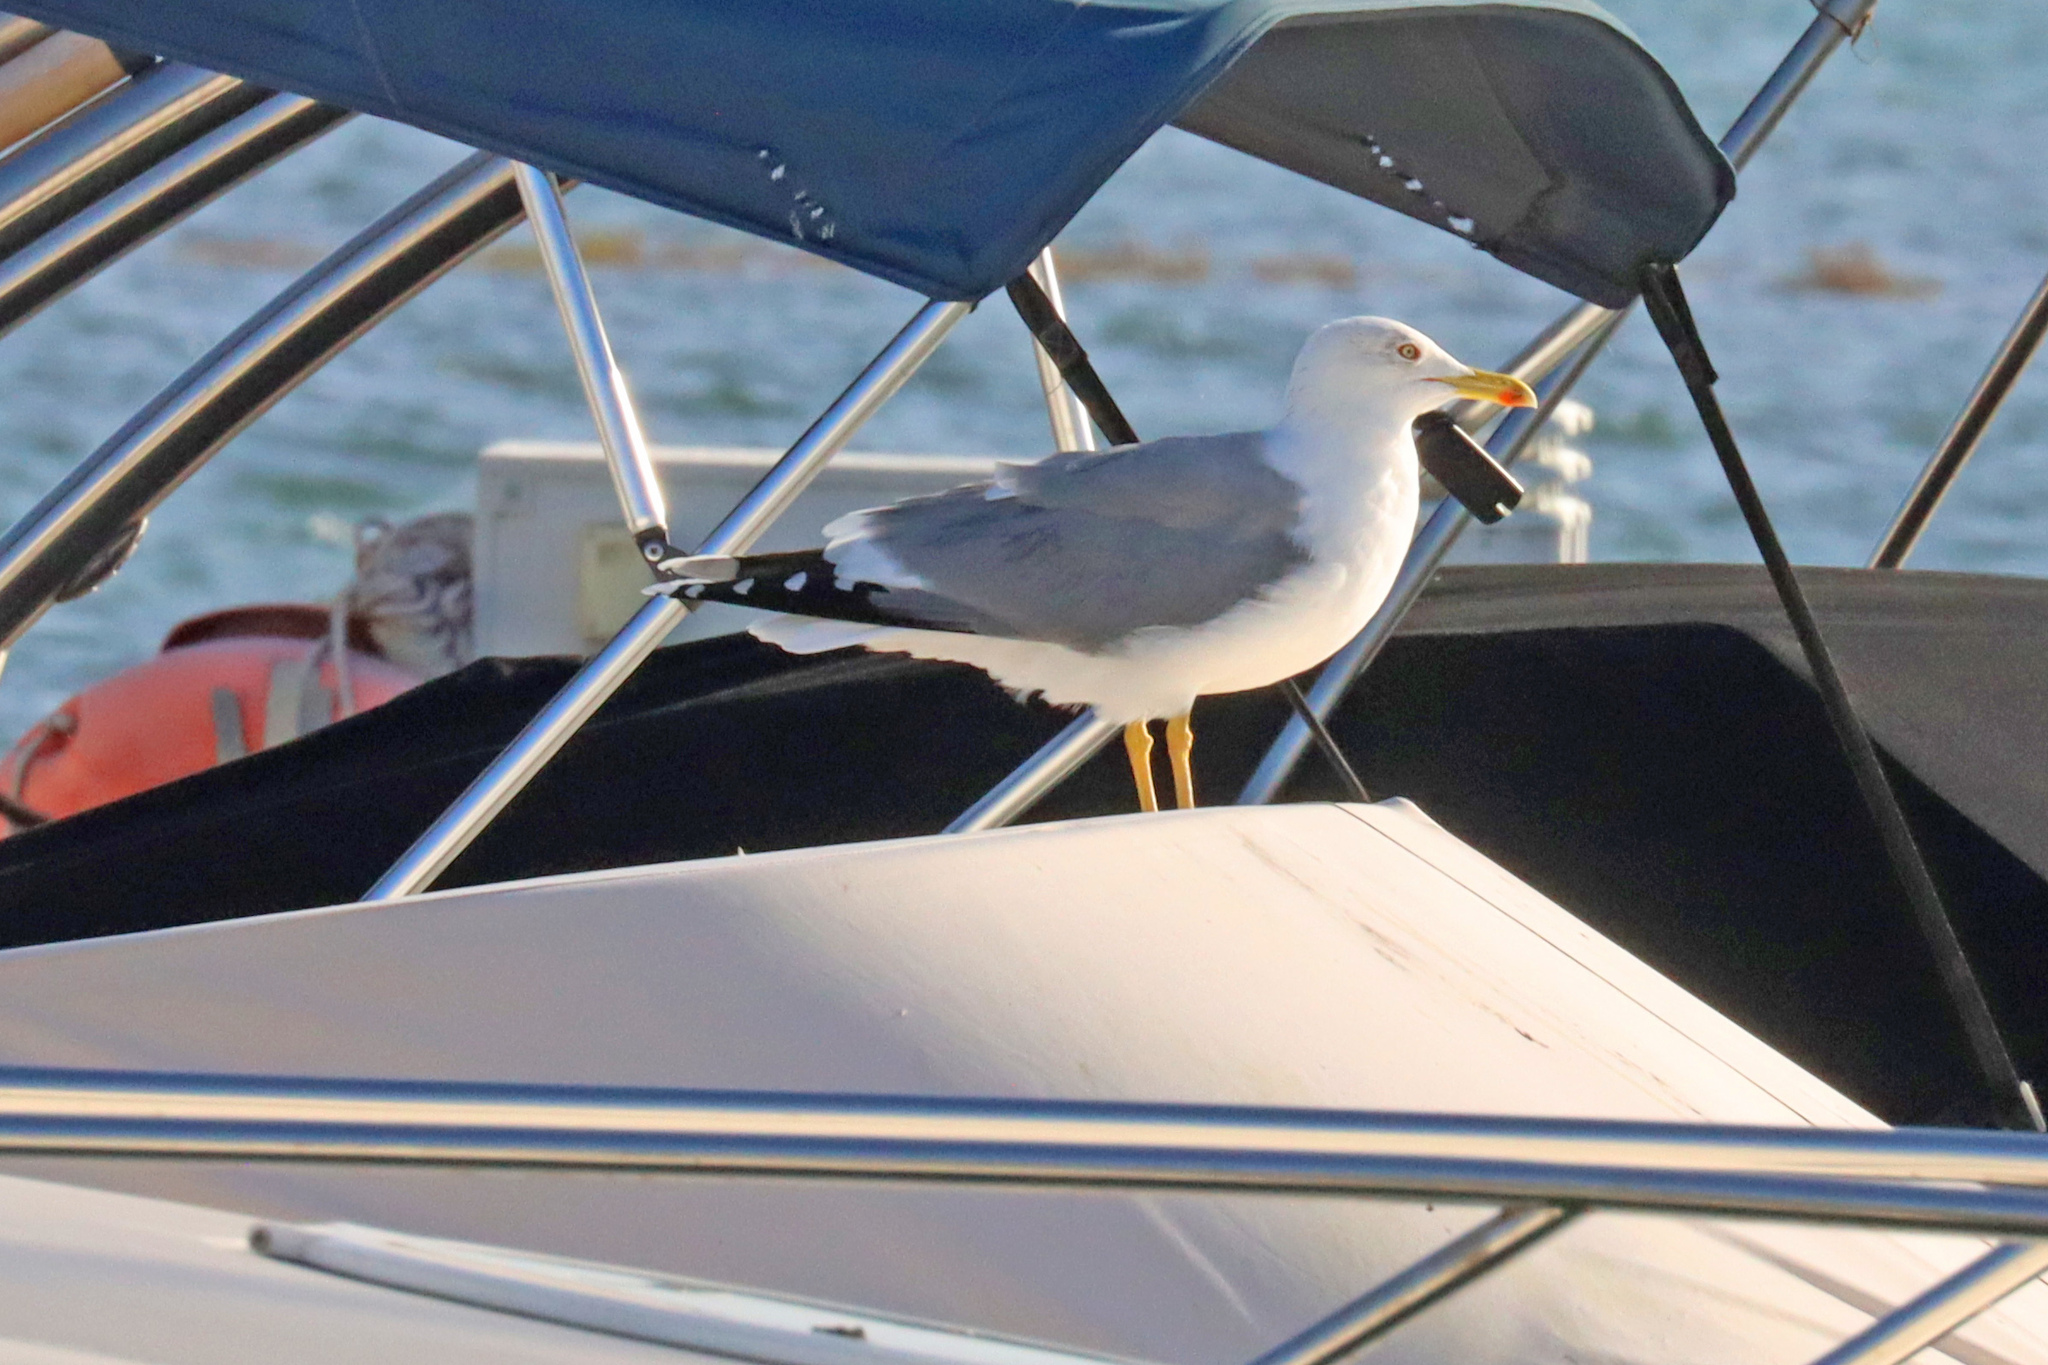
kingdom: Animalia
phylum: Chordata
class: Aves
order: Charadriiformes
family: Laridae
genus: Larus
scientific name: Larus michahellis
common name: Yellow-legged gull
